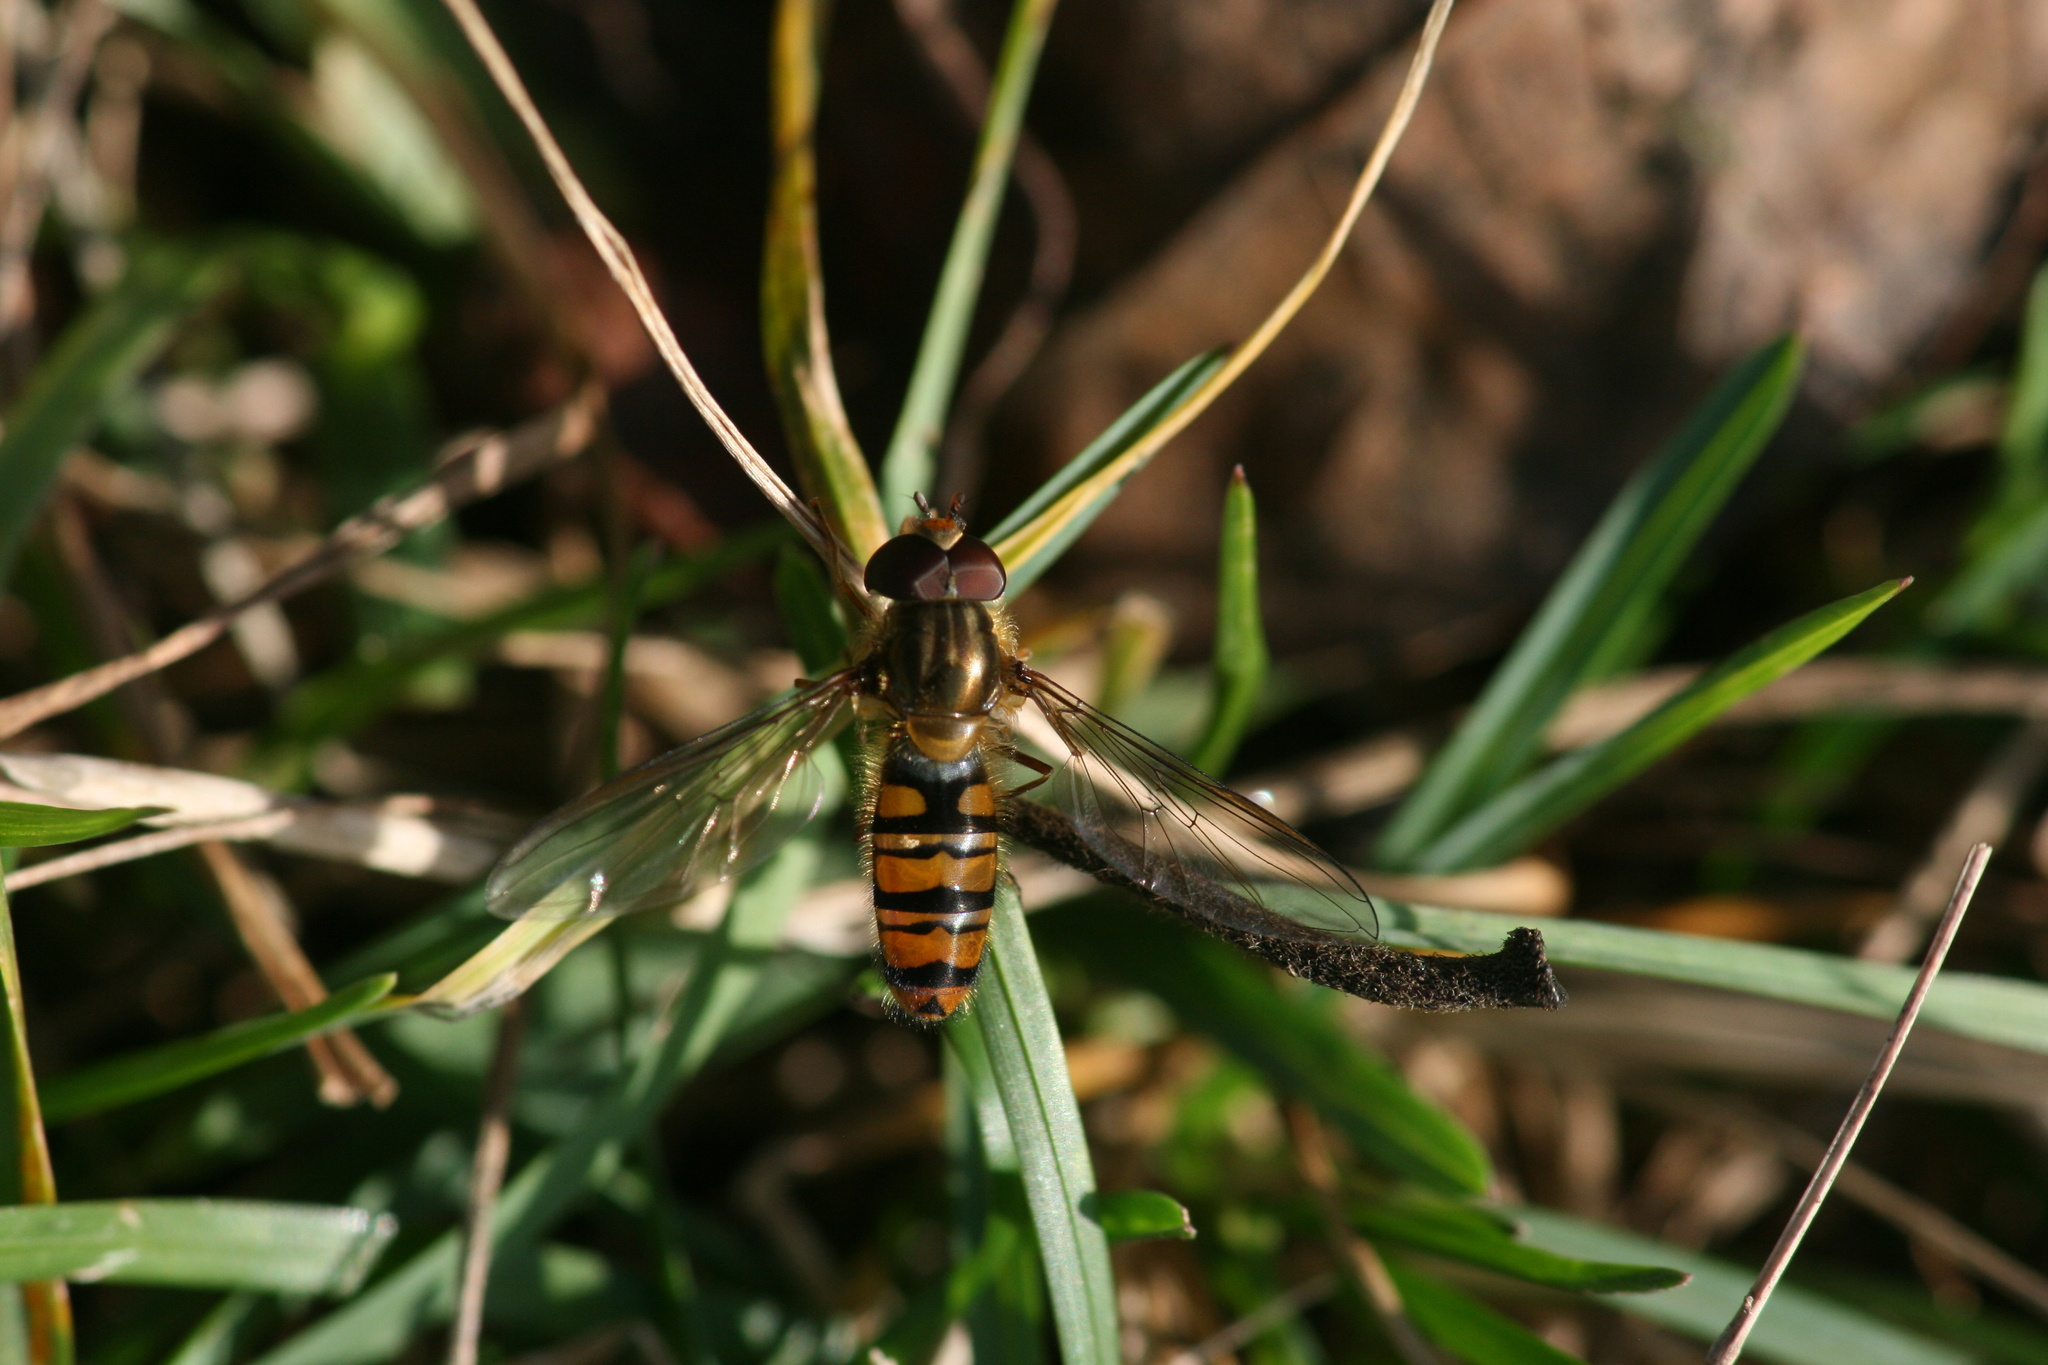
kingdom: Animalia
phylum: Arthropoda
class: Insecta
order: Diptera
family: Syrphidae
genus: Episyrphus
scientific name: Episyrphus balteatus
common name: Marmalade hoverfly
